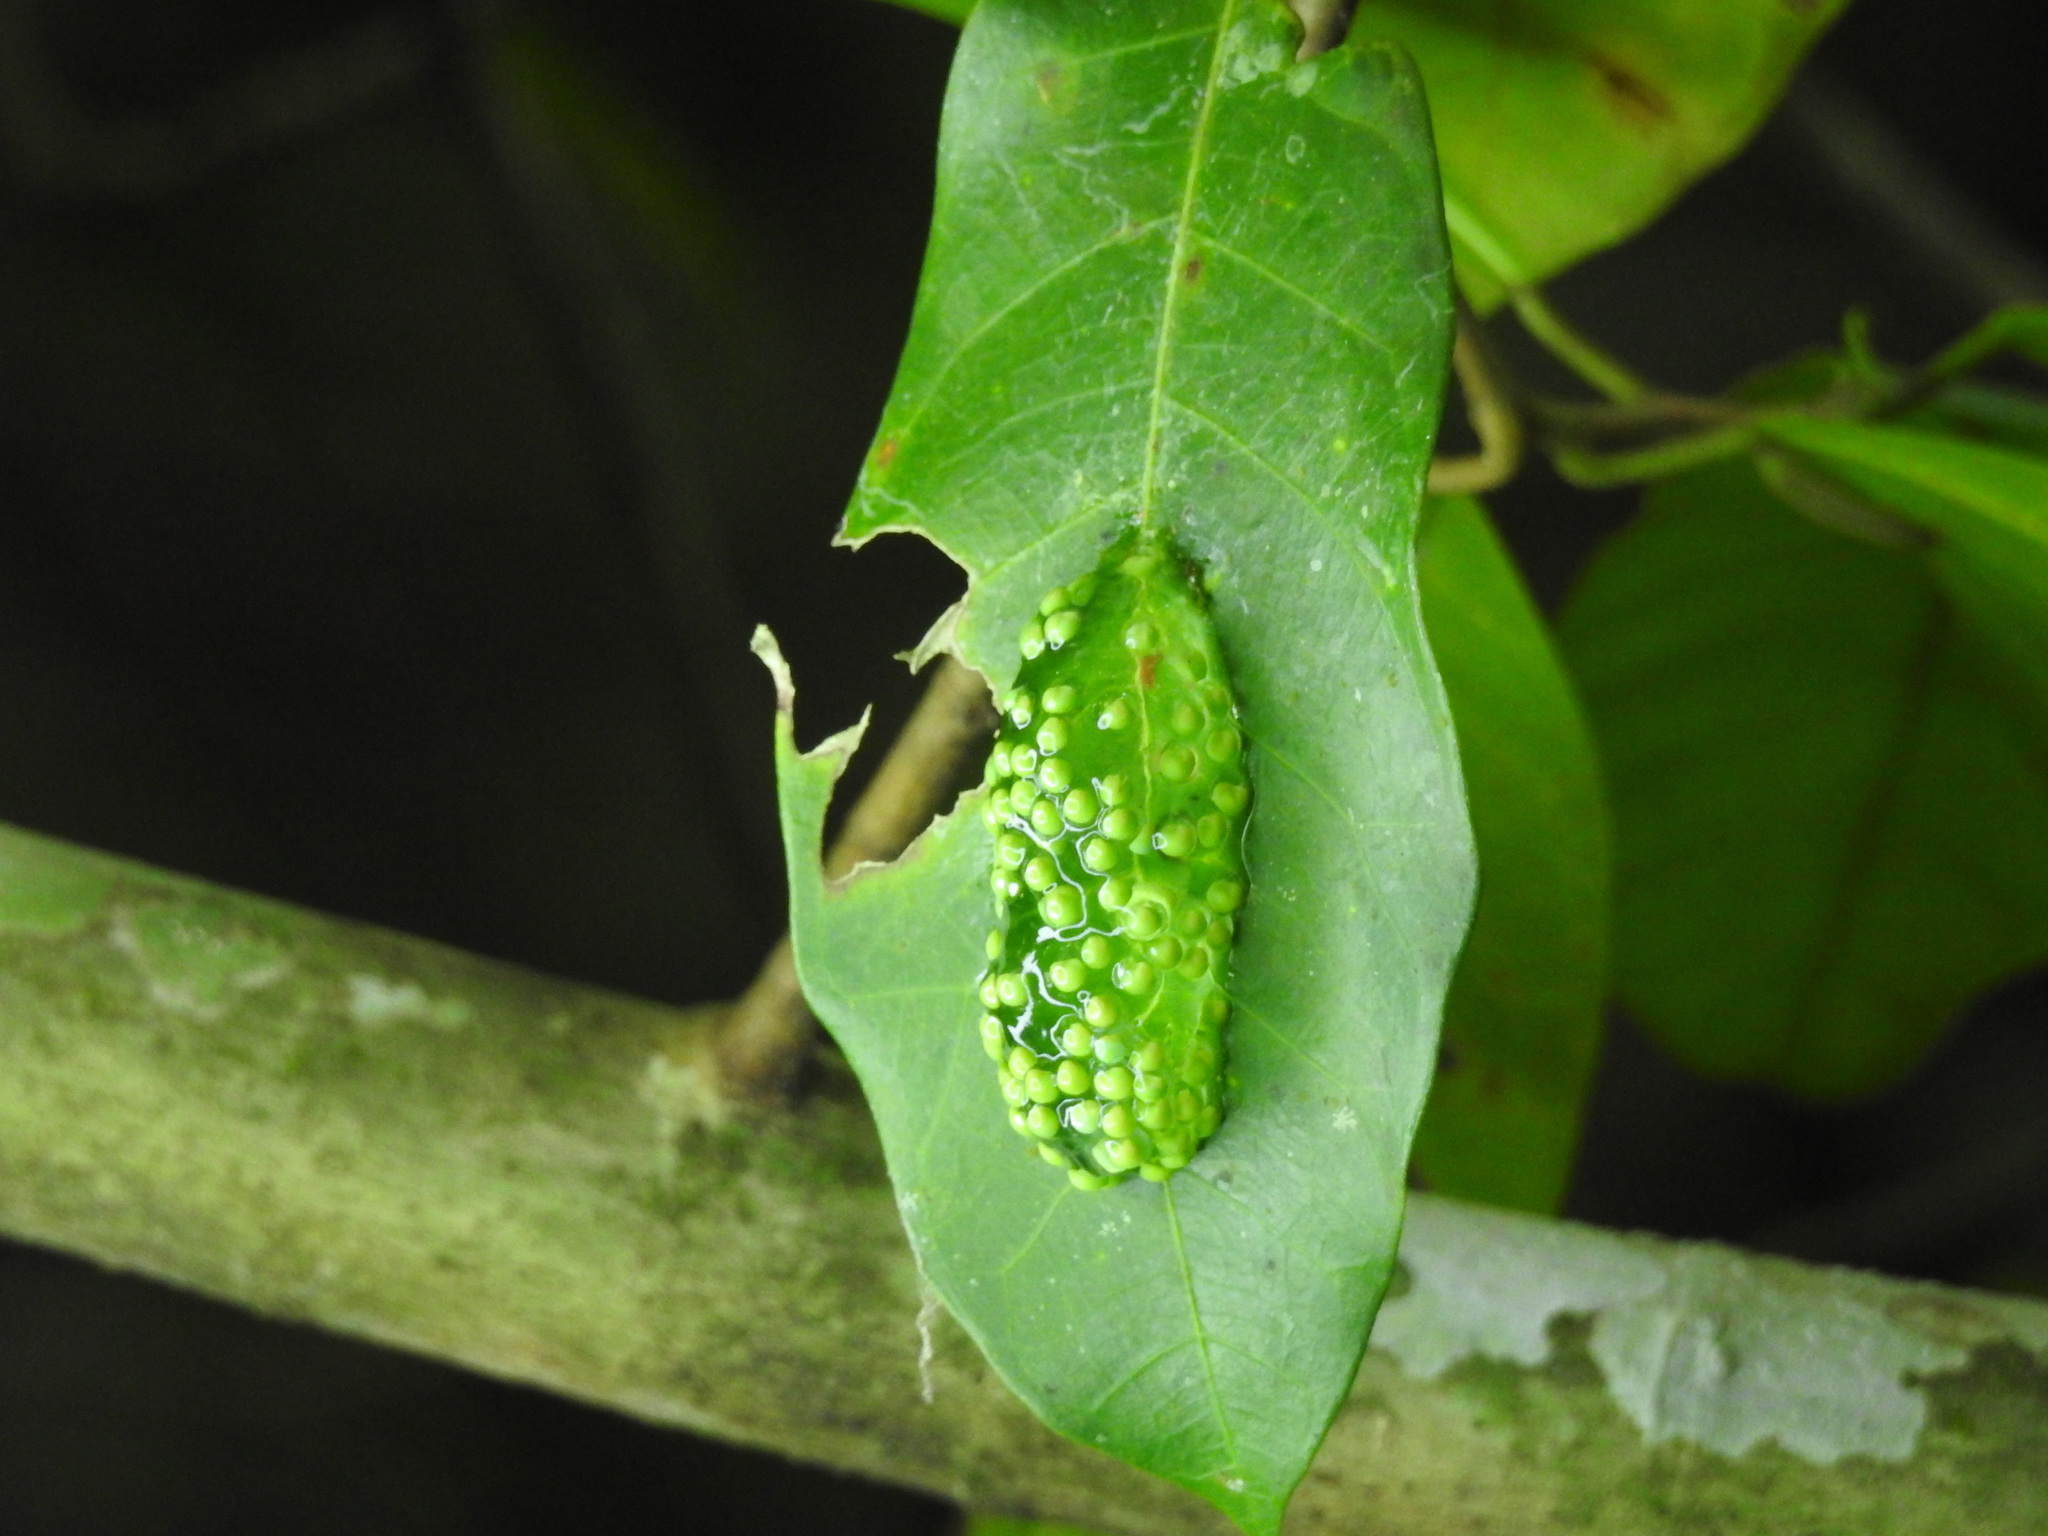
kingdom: Animalia
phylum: Chordata
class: Amphibia
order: Anura
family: Phyllomedusidae
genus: Agalychnis
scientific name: Agalychnis
